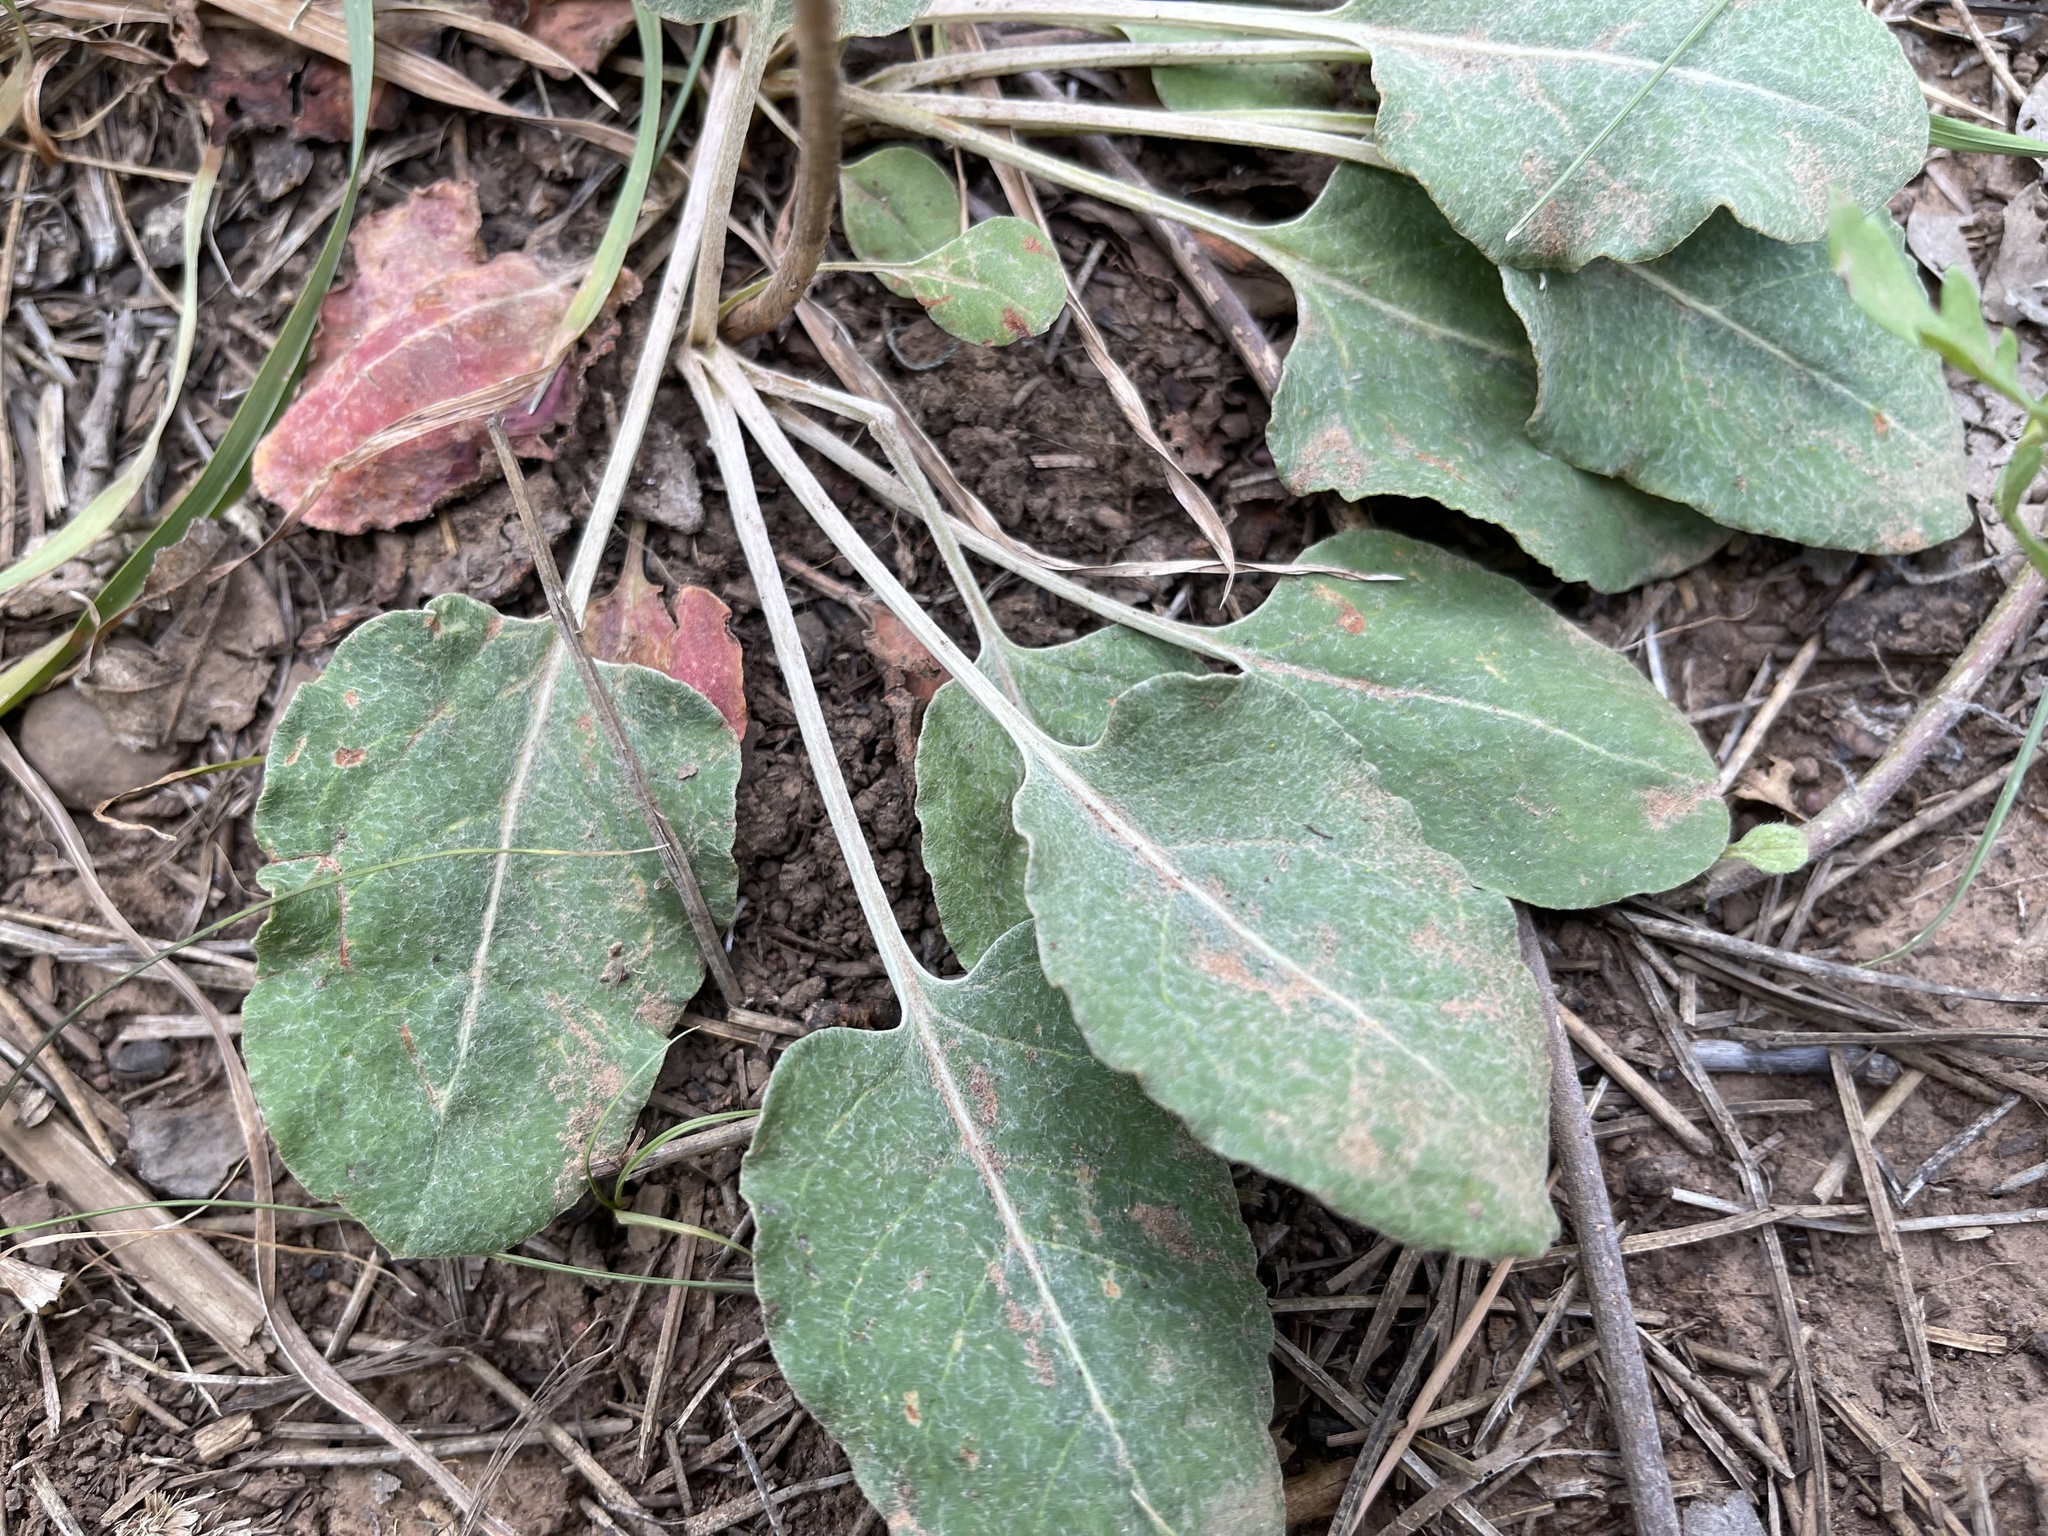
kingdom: Plantae
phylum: Tracheophyta
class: Magnoliopsida
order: Caryophyllales
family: Polygonaceae
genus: Eriogonum
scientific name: Eriogonum racemosum
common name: Redroot wild buckwheat
